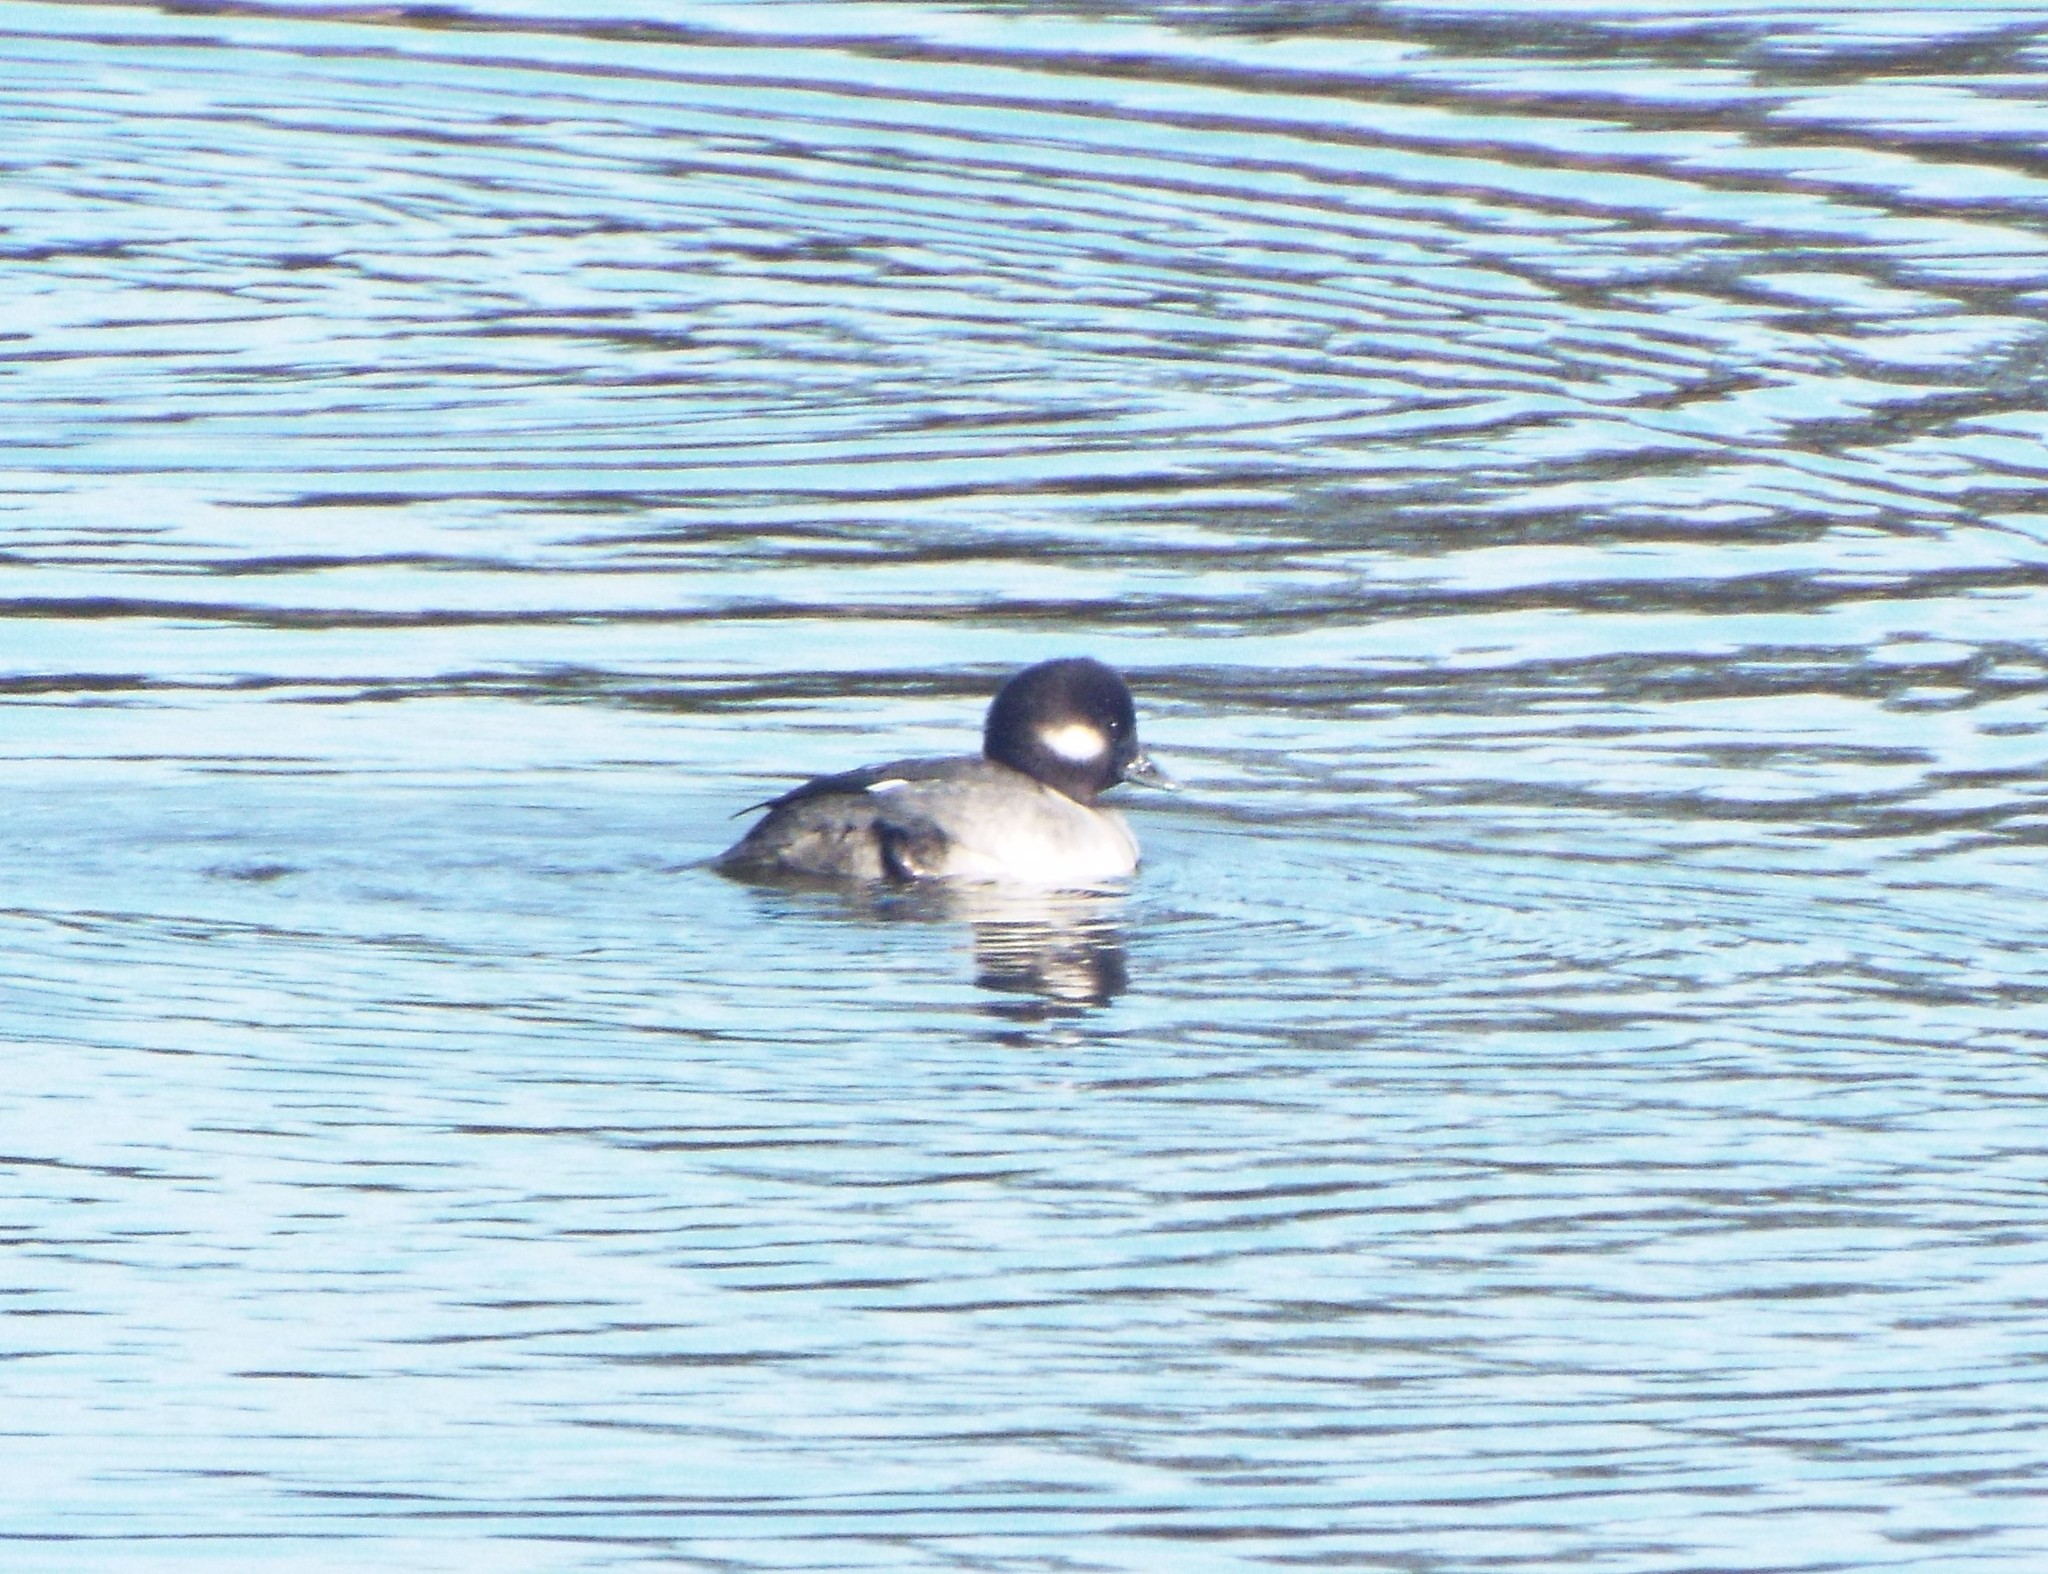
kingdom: Animalia
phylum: Chordata
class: Aves
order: Anseriformes
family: Anatidae
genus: Bucephala
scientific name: Bucephala albeola
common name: Bufflehead
